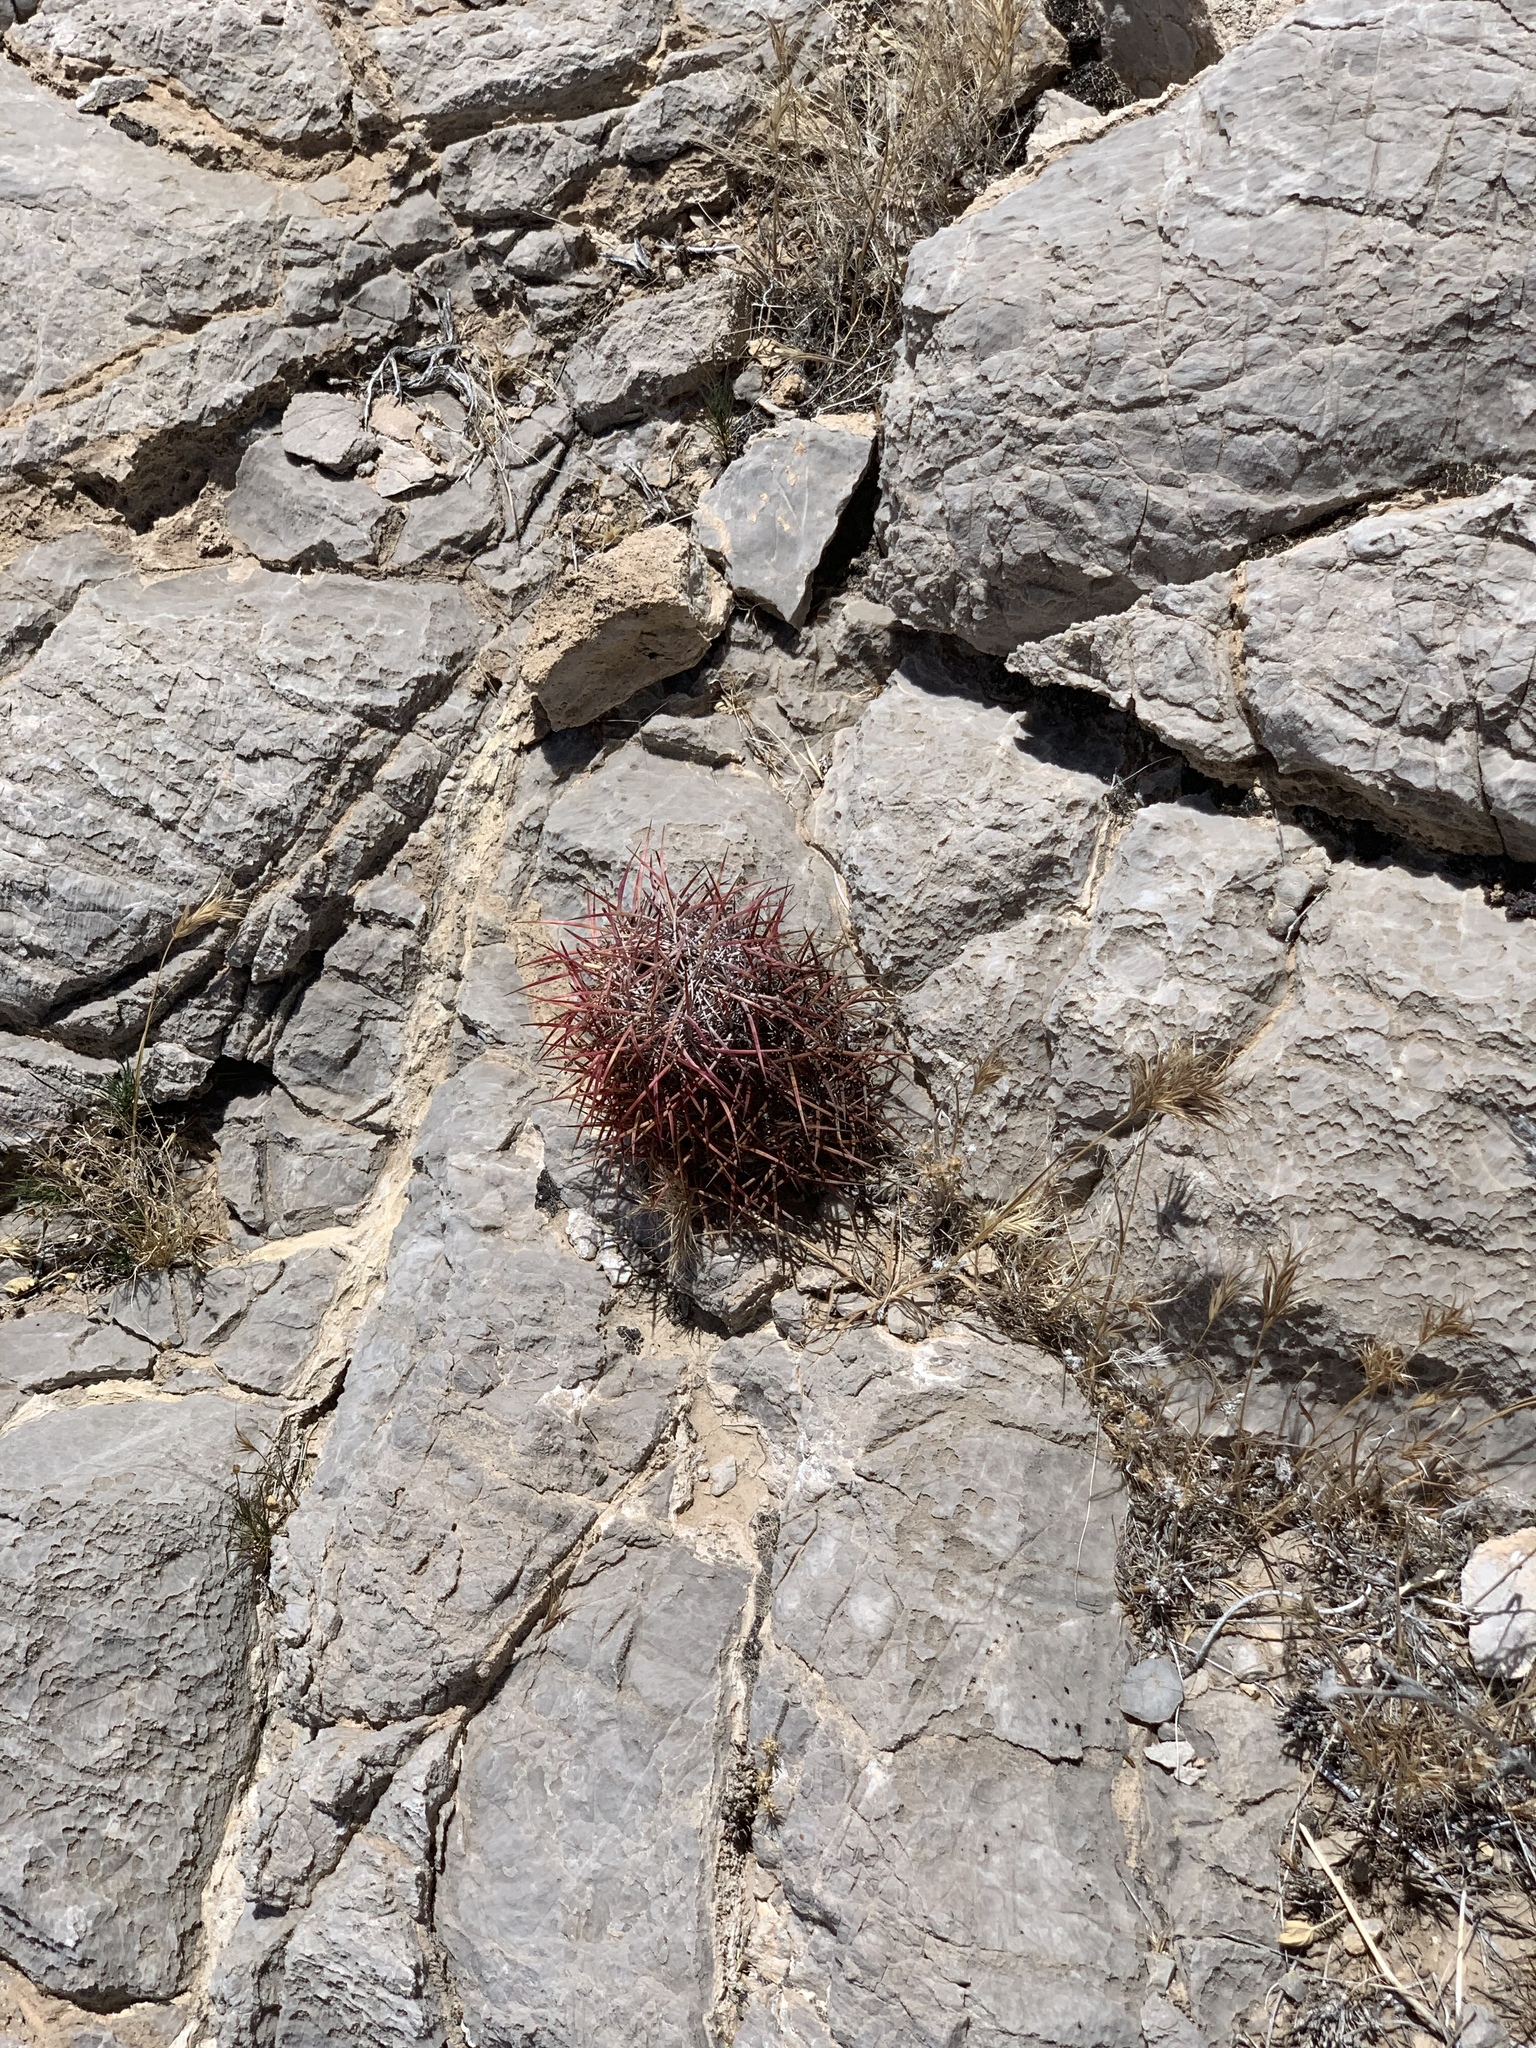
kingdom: Plantae
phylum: Tracheophyta
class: Magnoliopsida
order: Caryophyllales
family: Cactaceae
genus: Sclerocactus
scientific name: Sclerocactus johnsonii
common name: Eight-spine fishhook cactus
